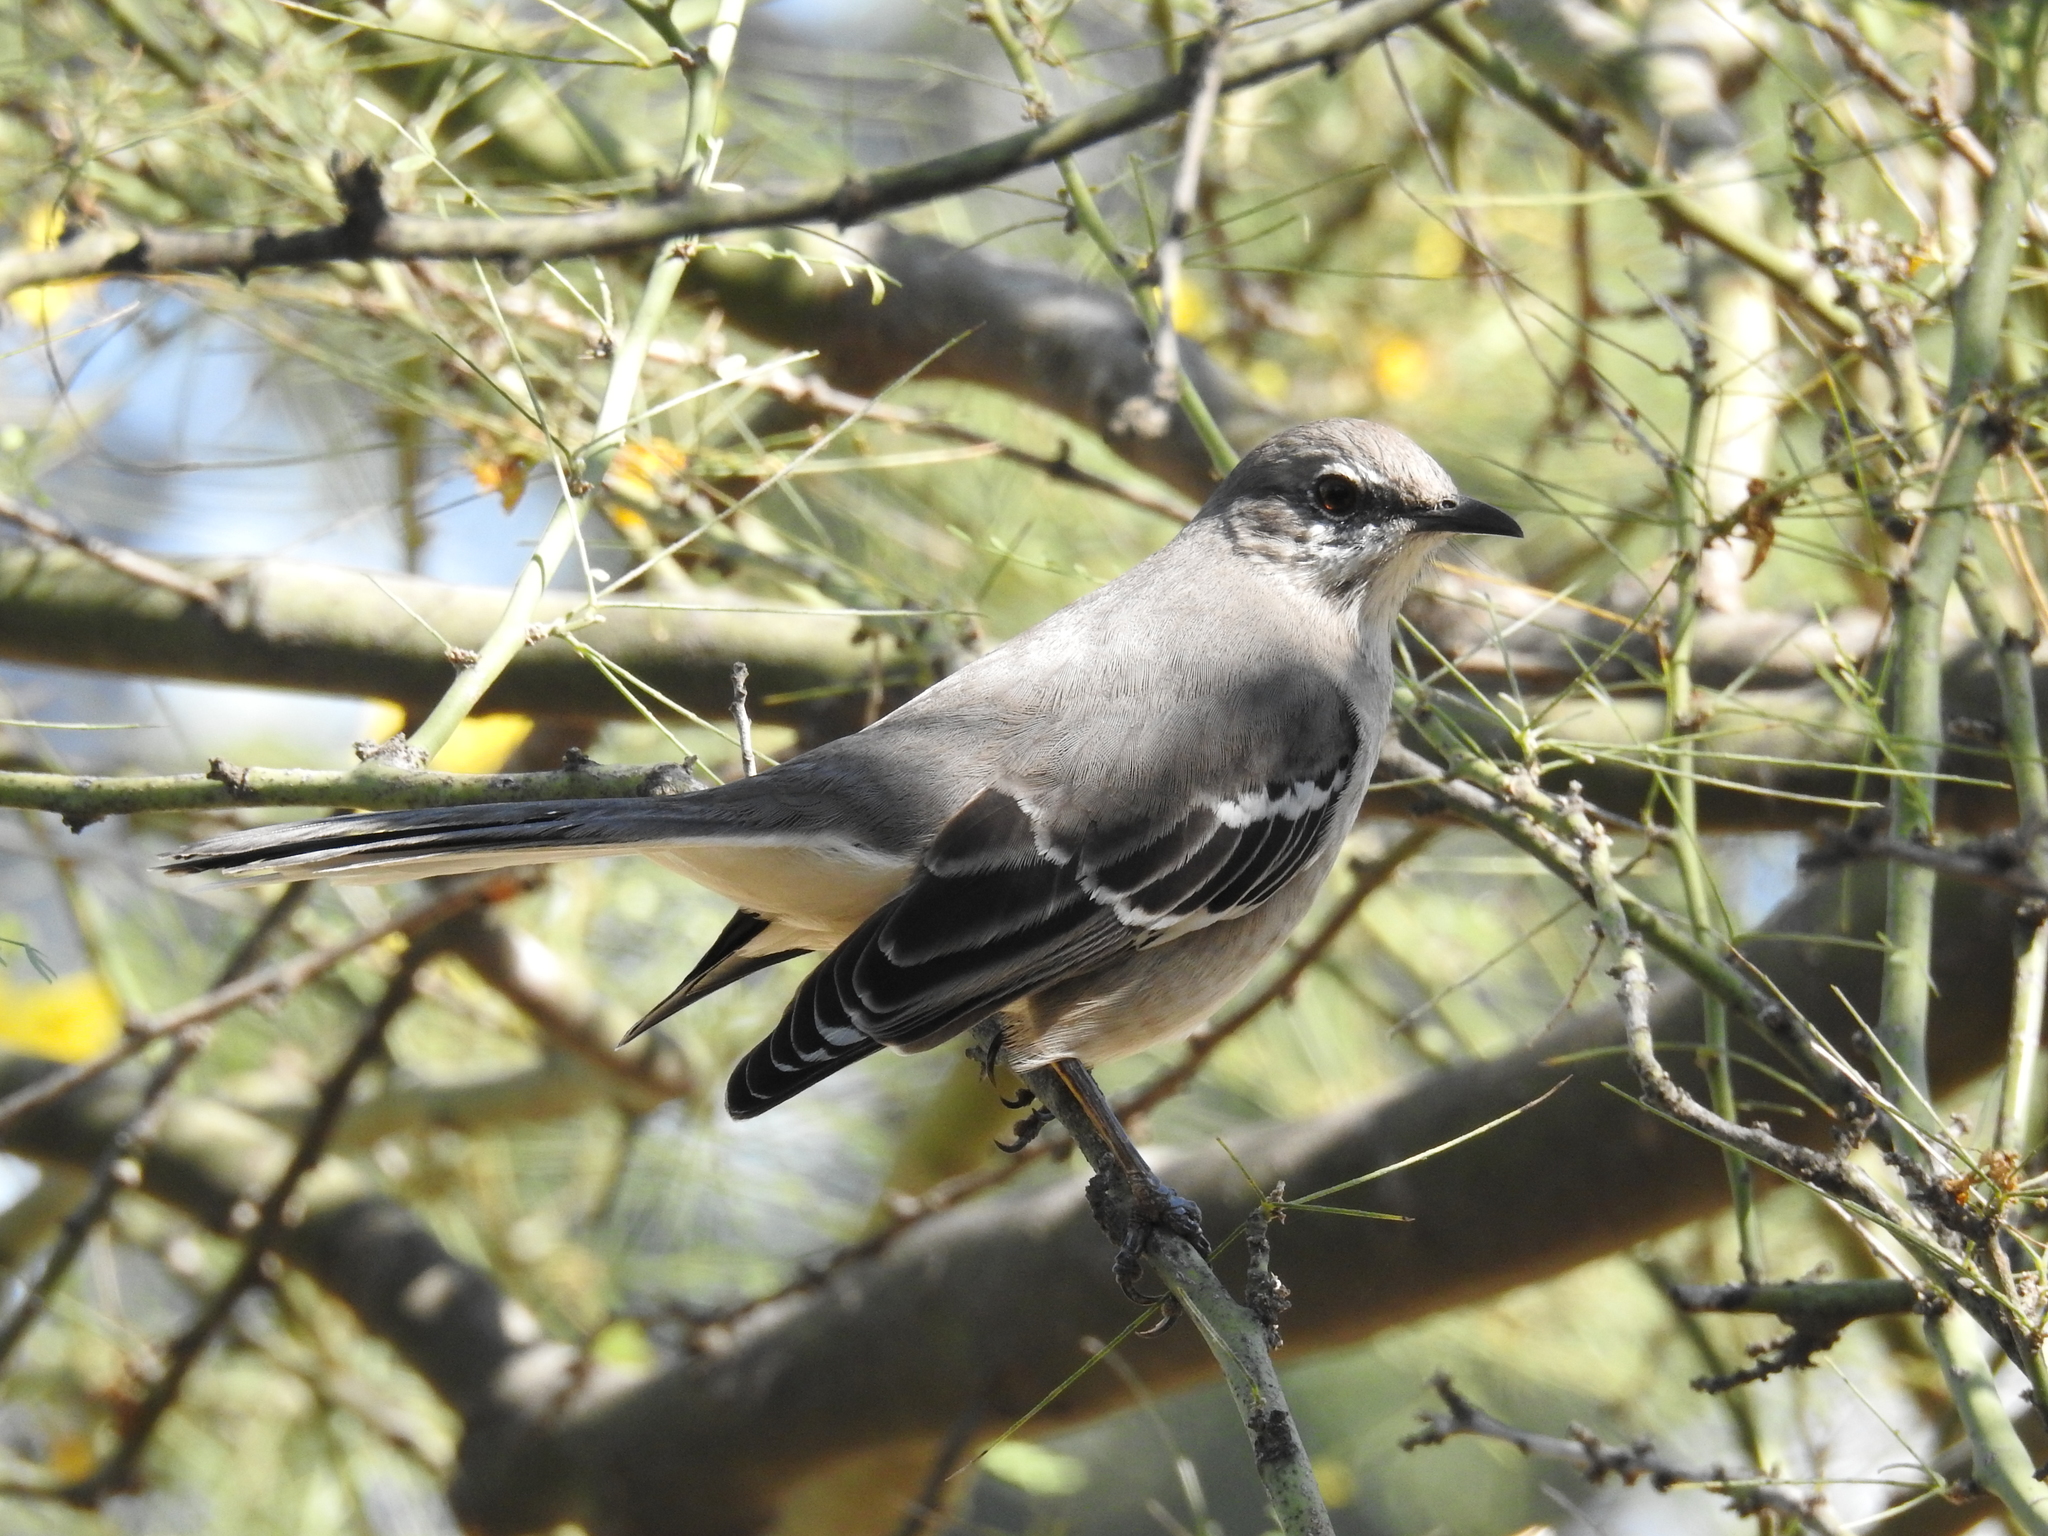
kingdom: Animalia
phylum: Chordata
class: Aves
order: Passeriformes
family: Mimidae
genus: Mimus
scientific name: Mimus polyglottos
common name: Northern mockingbird
